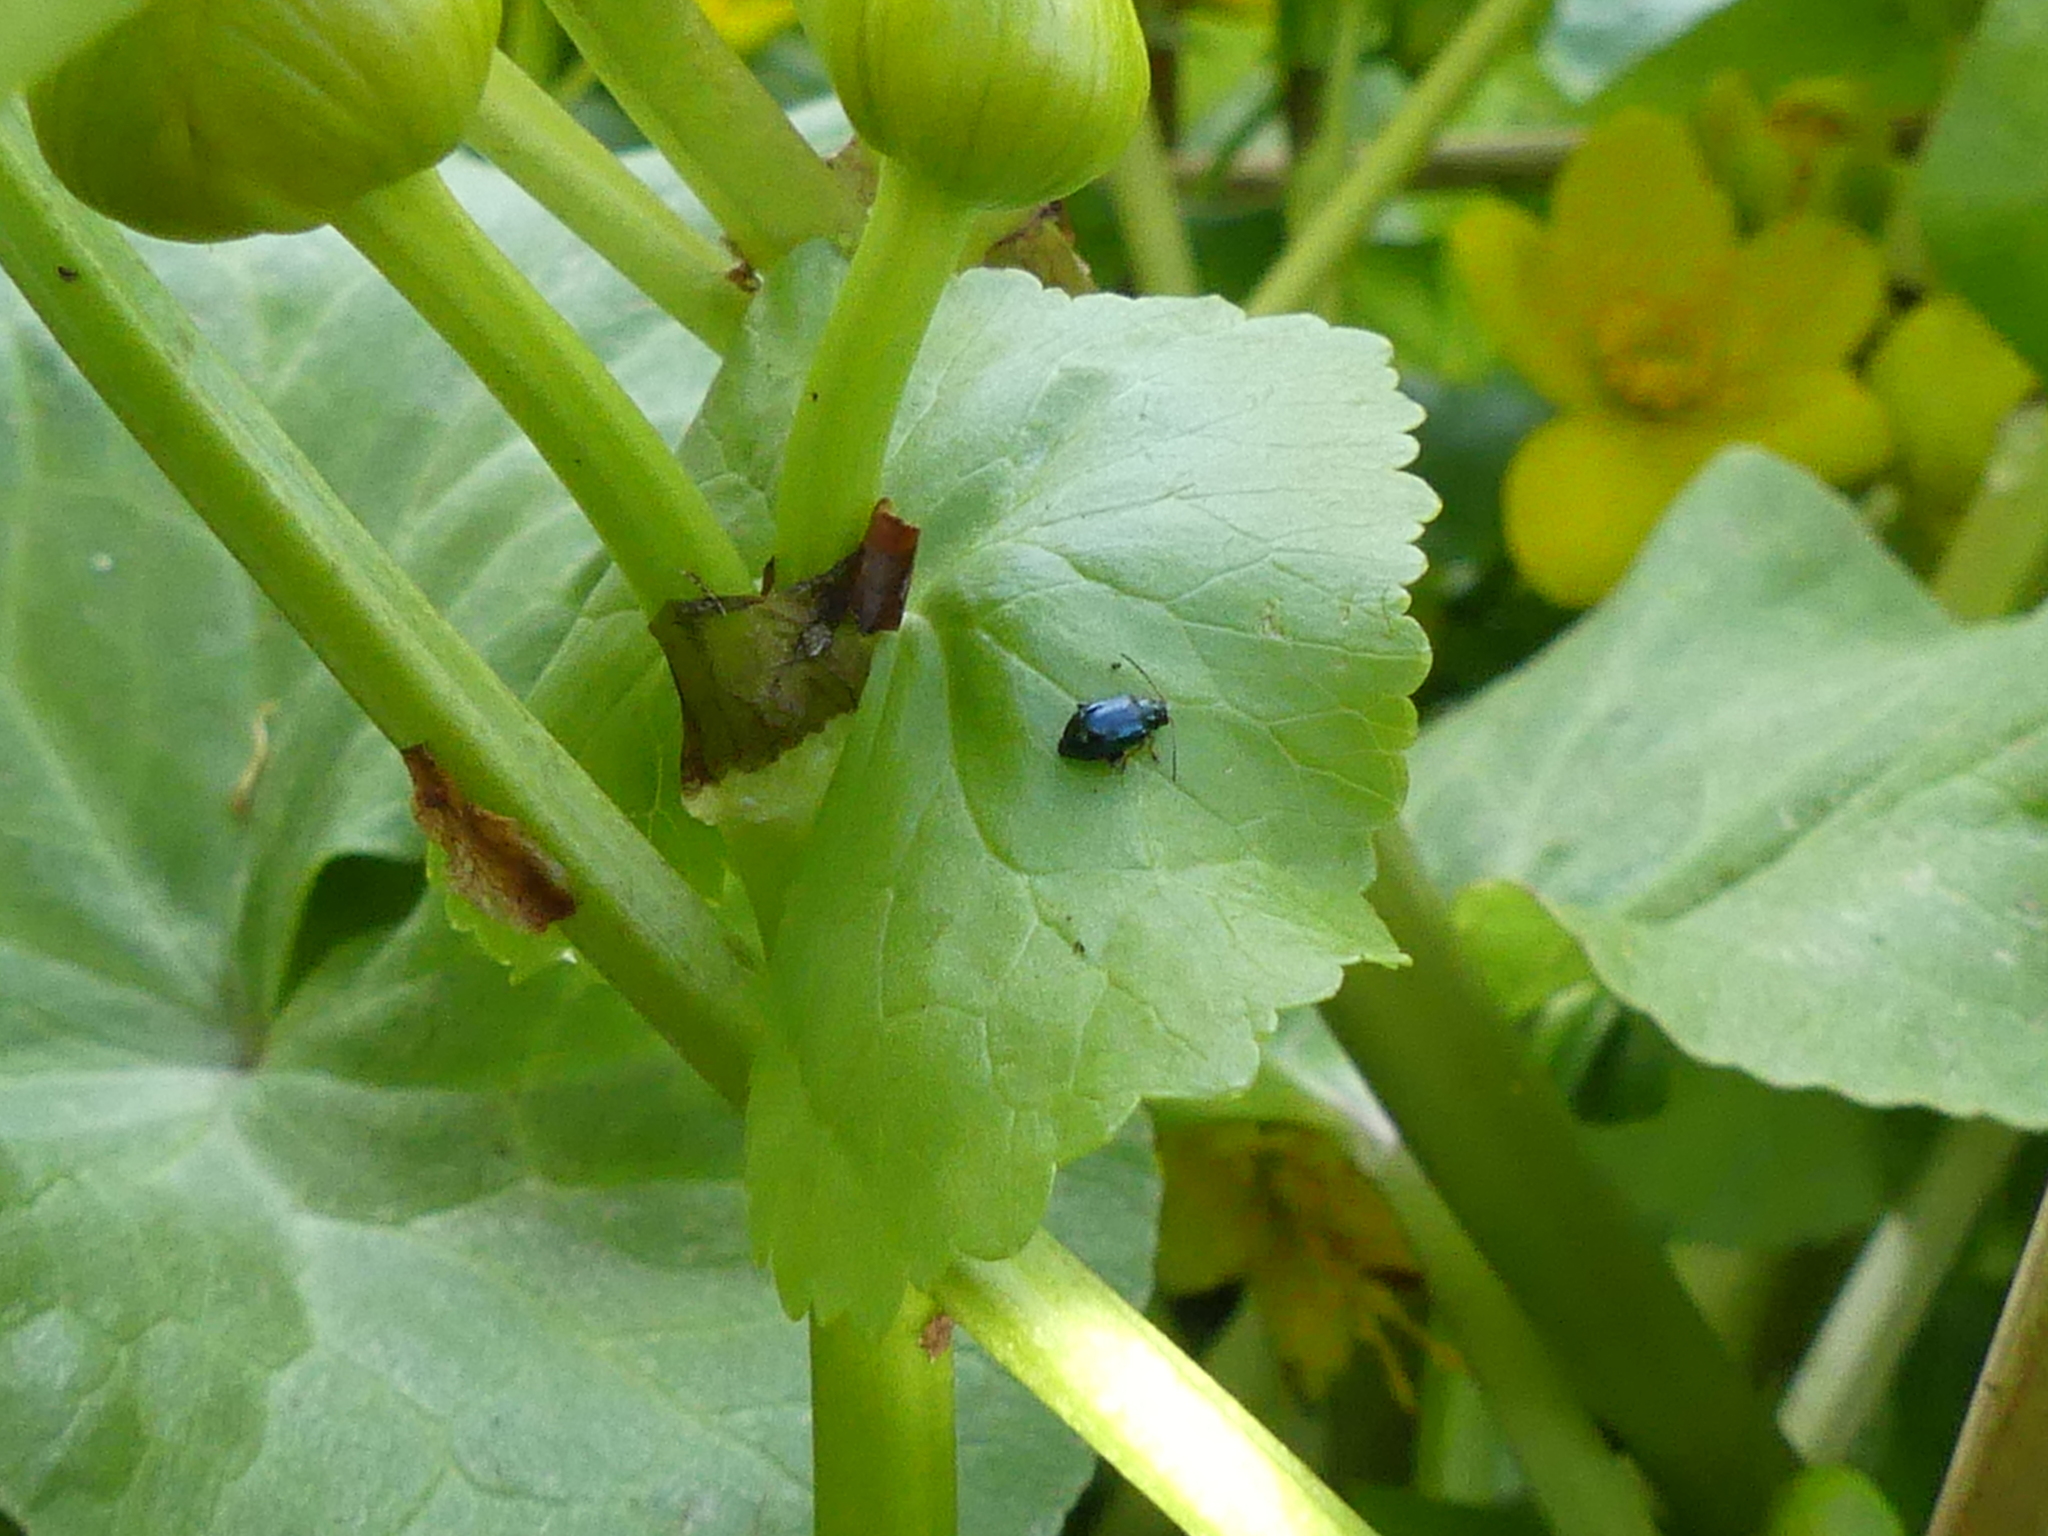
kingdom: Animalia
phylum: Arthropoda
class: Insecta
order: Coleoptera
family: Chrysomelidae
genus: Aphthona
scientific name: Aphthona nonstriata
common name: Iris flea beetle
